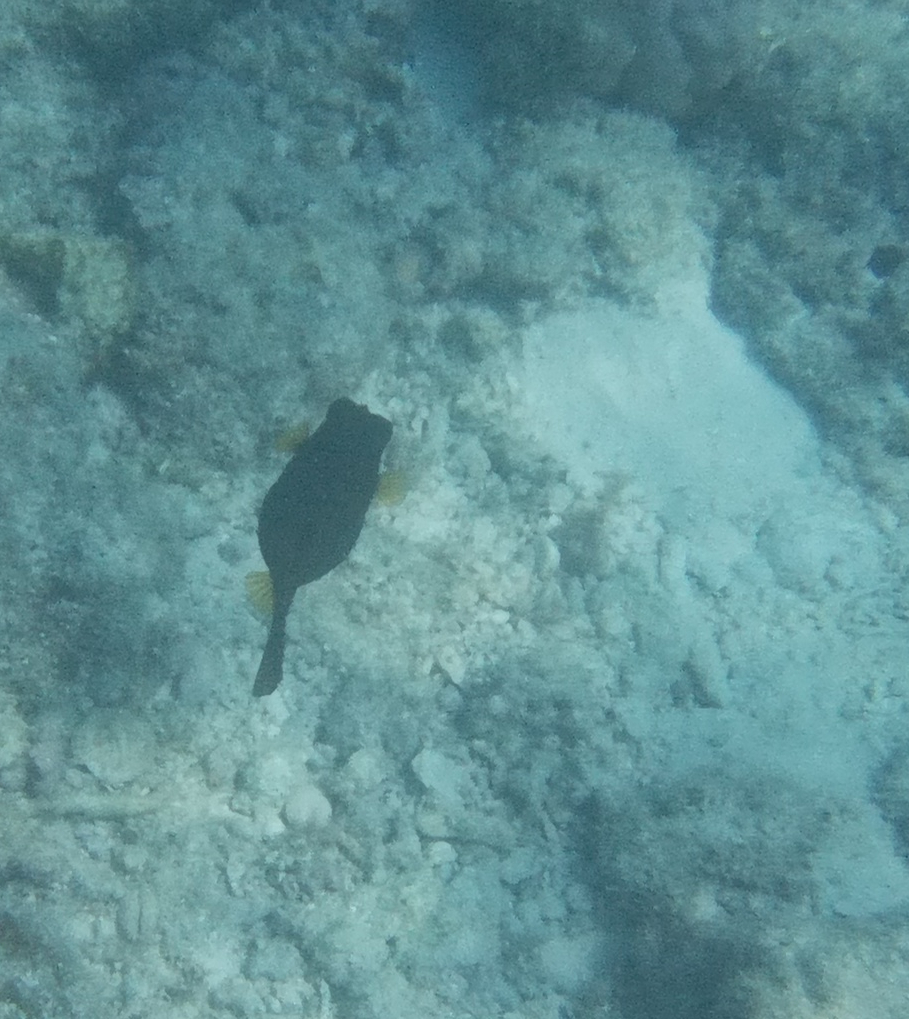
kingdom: Animalia
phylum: Chordata
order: Tetraodontiformes
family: Ostraciidae
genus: Ostracion
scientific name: Ostracion cubicus
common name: Cube trunkfish
